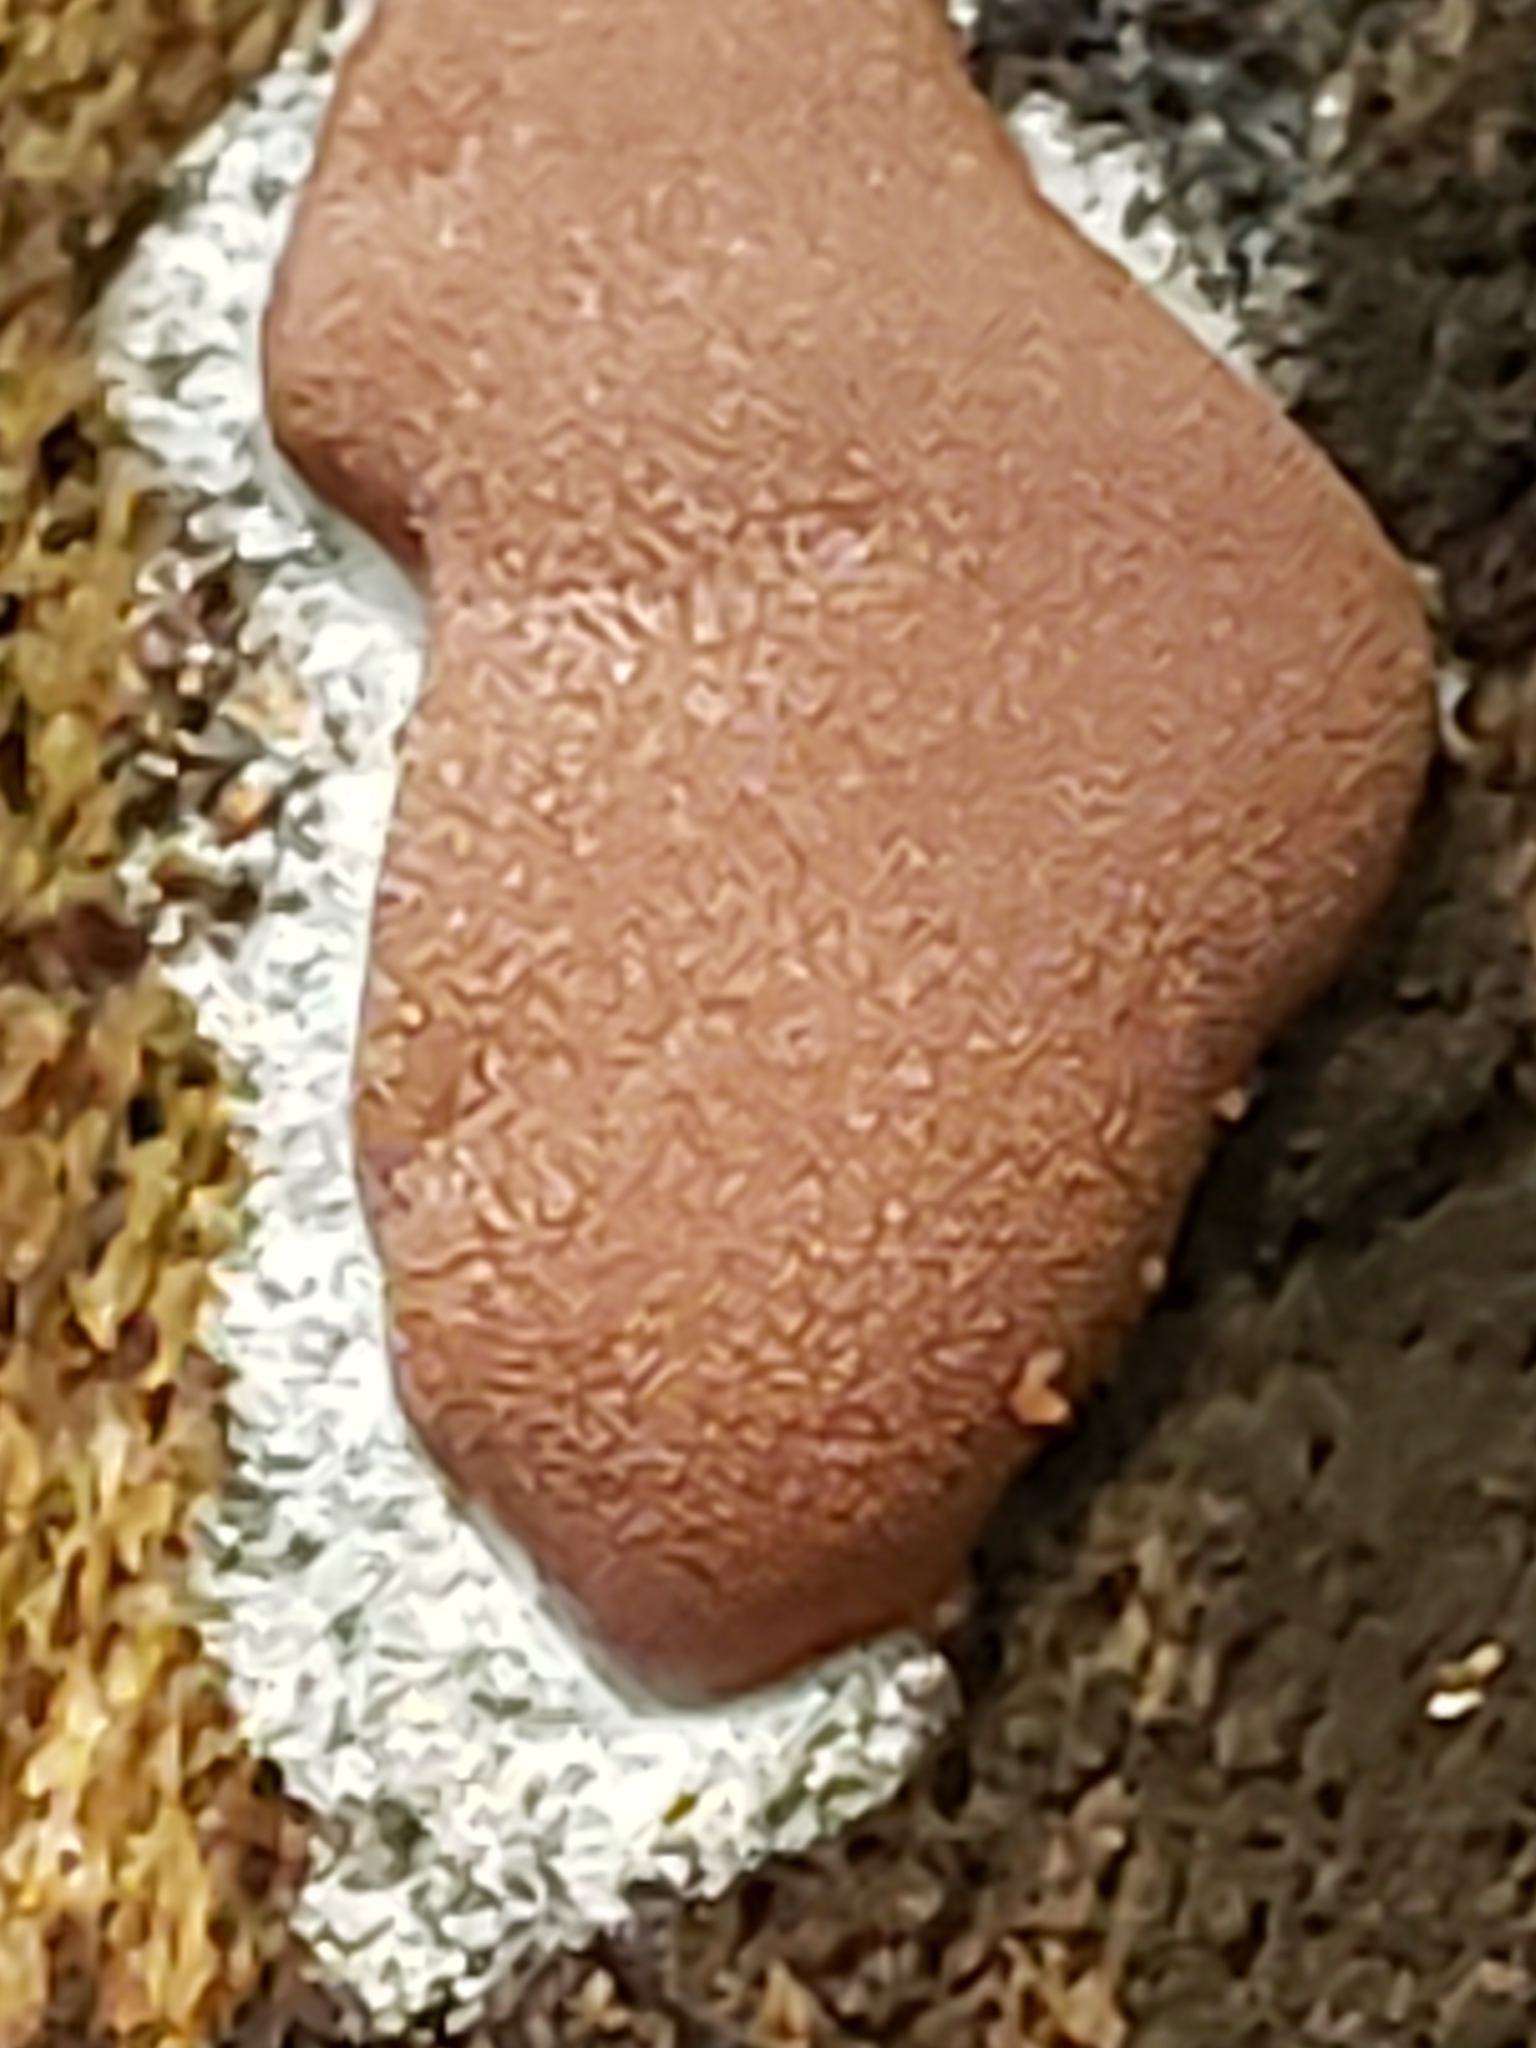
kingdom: Protozoa
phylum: Mycetozoa
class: Myxomycetes
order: Trichiales
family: Dictydiaethaliaceae
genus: Dictydiaethalium
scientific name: Dictydiaethalium plumbeum
